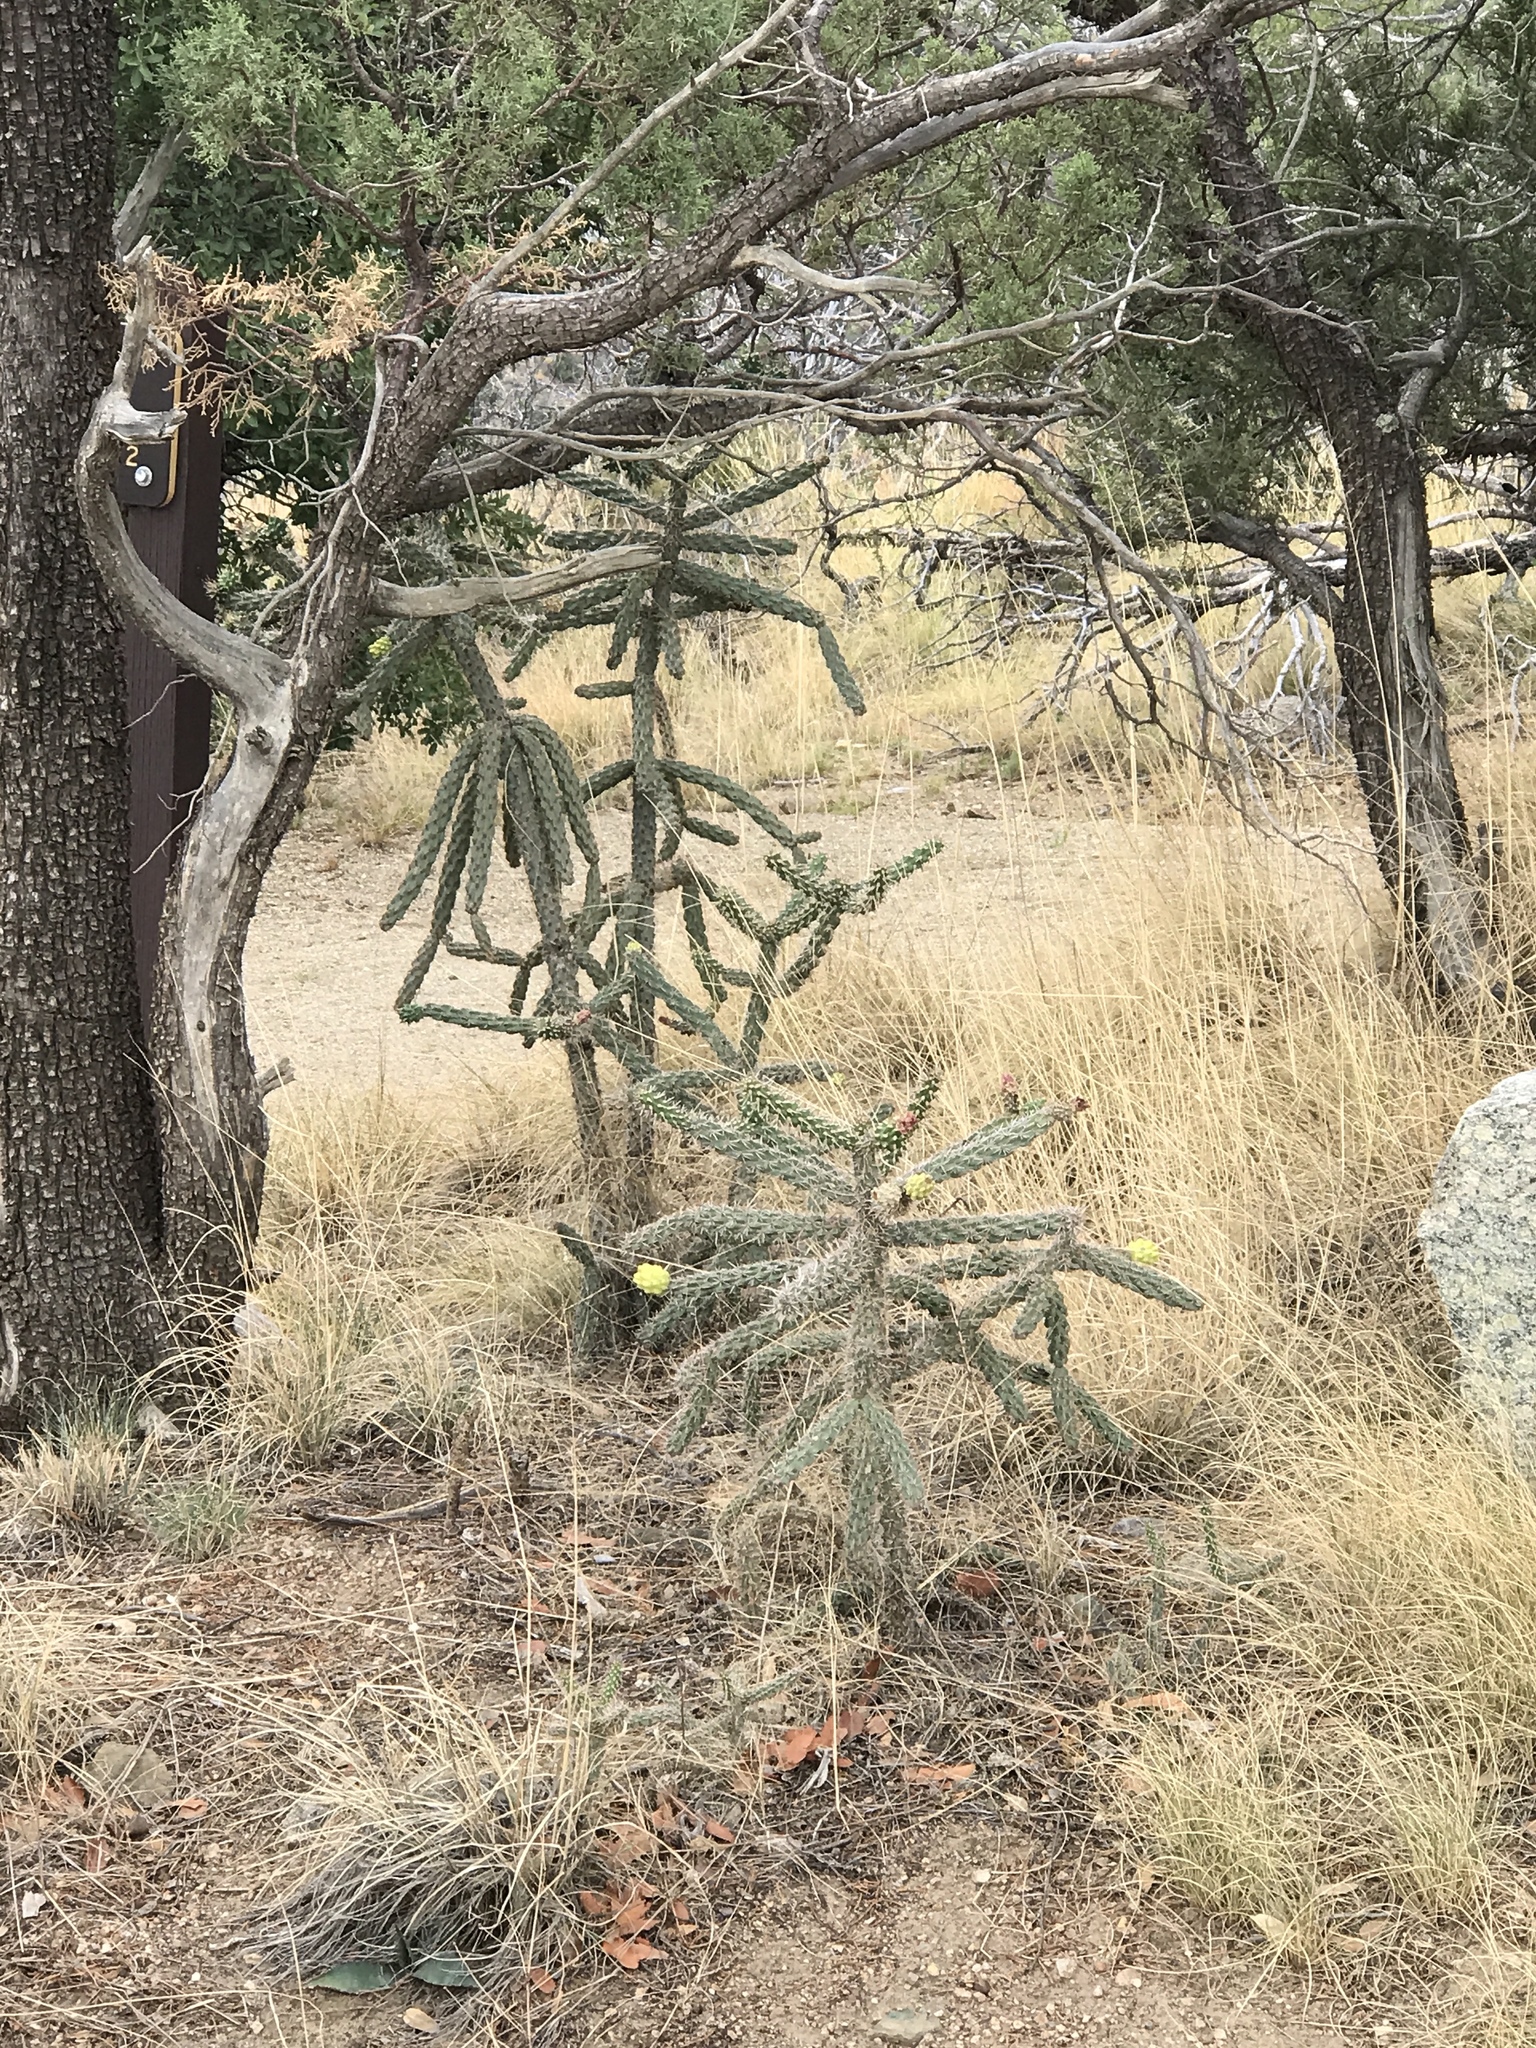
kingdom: Plantae
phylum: Tracheophyta
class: Magnoliopsida
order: Caryophyllales
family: Cactaceae
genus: Cylindropuntia
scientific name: Cylindropuntia imbricata
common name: Candelabrum cactus
